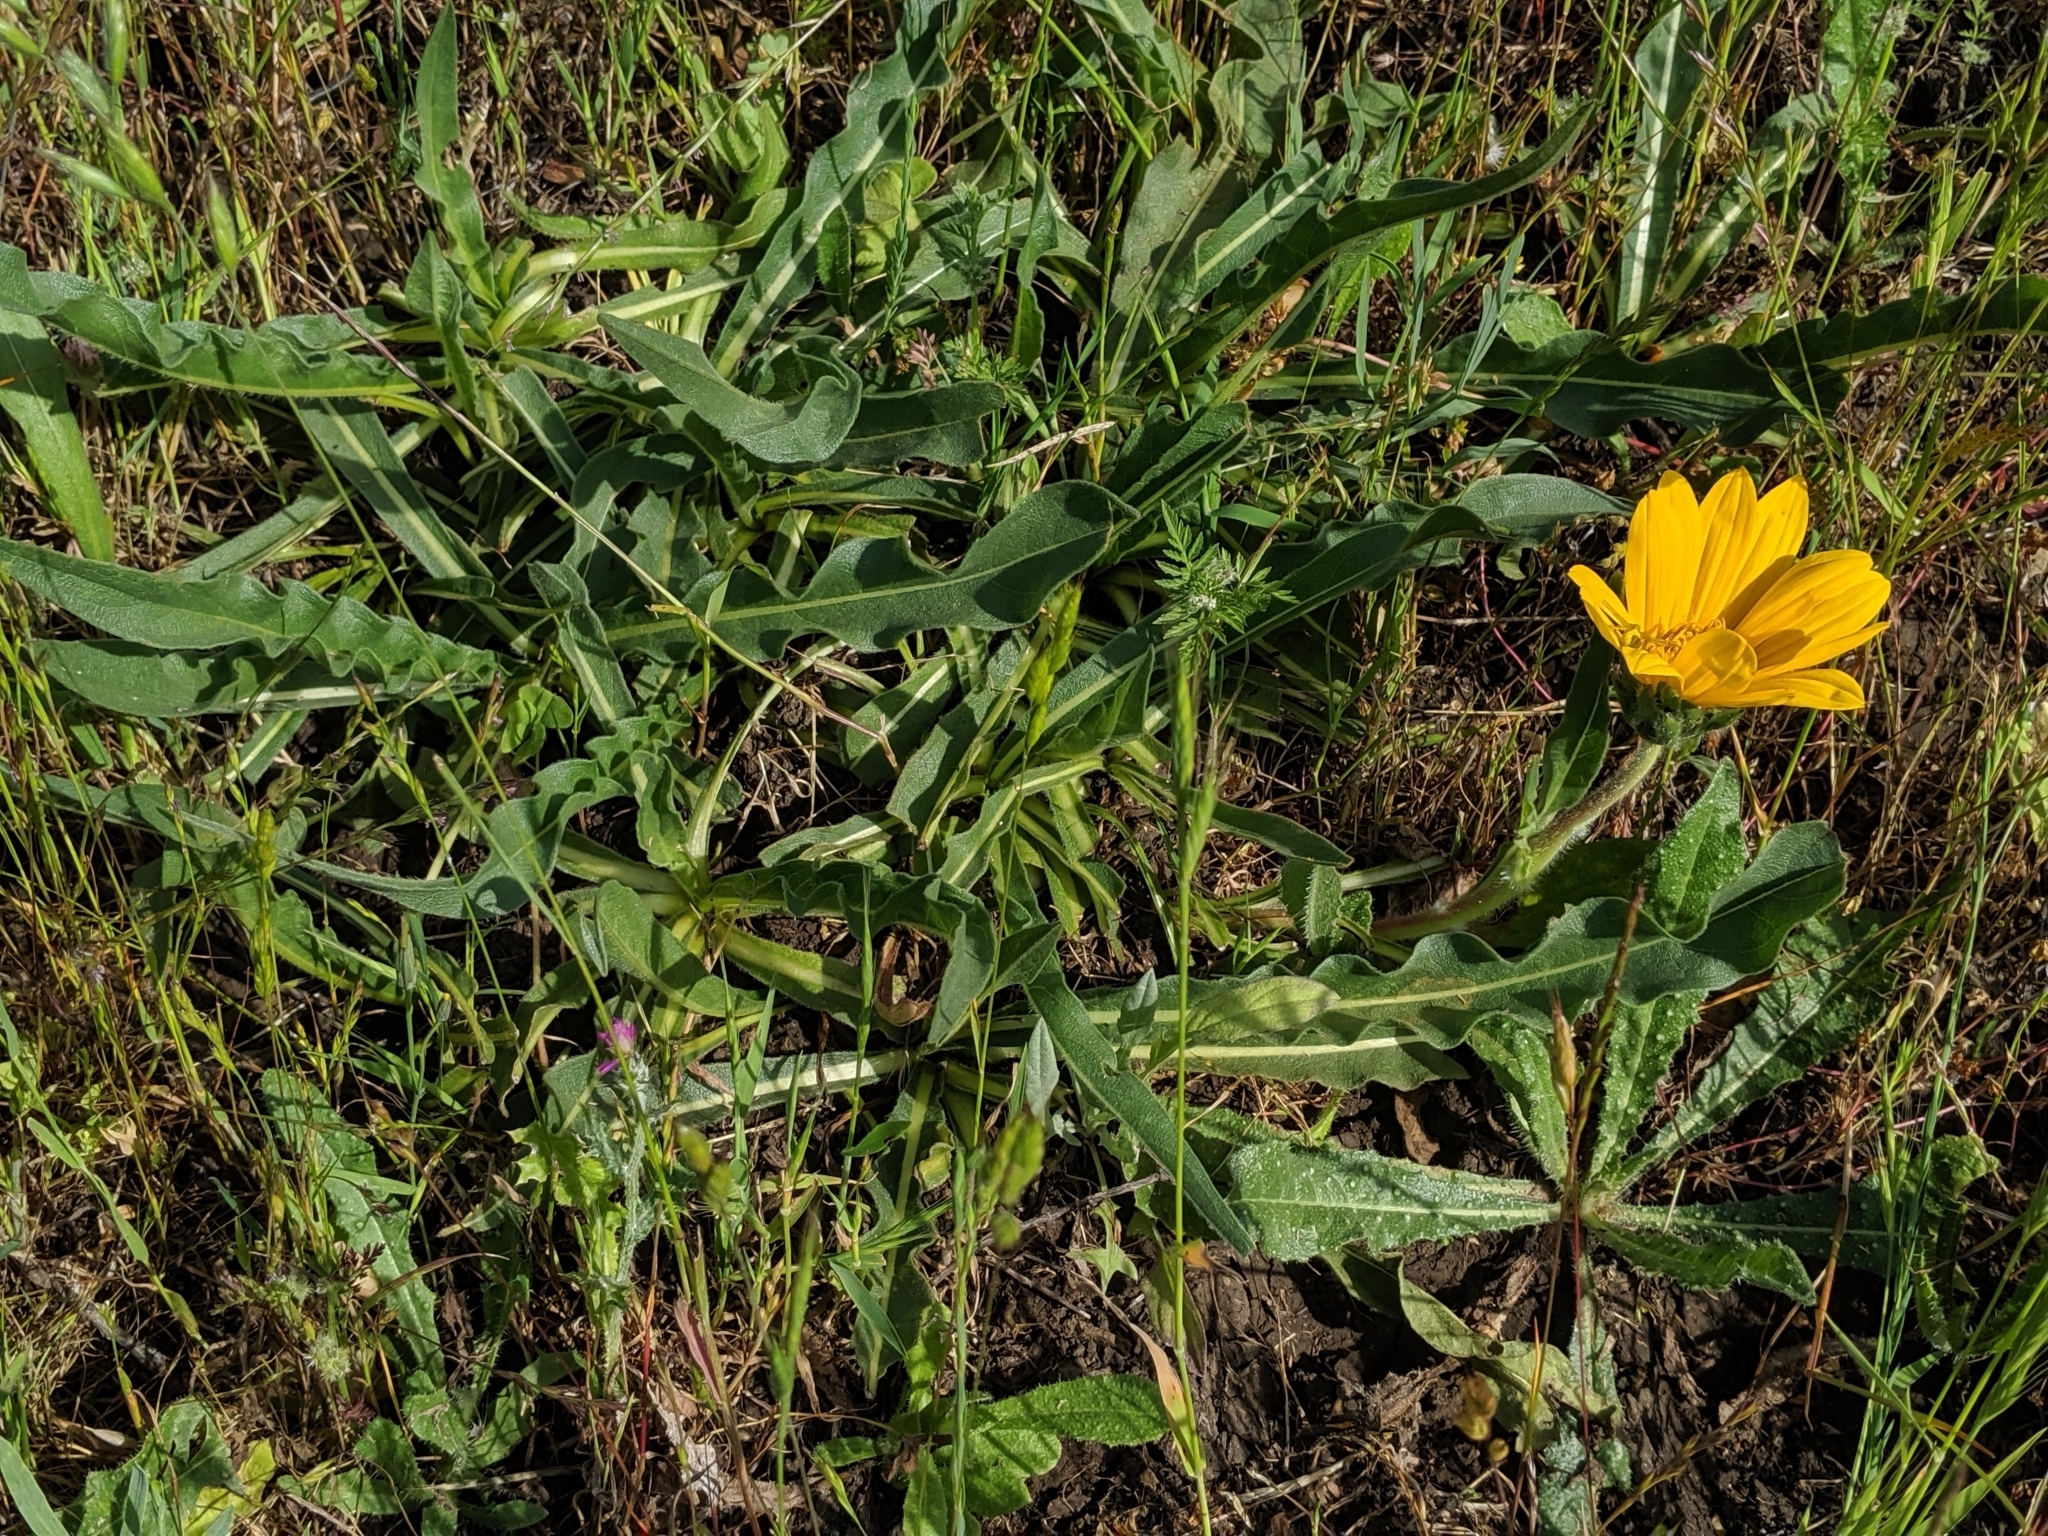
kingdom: Plantae
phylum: Tracheophyta
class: Magnoliopsida
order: Asterales
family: Asteraceae
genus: Wyethia
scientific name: Wyethia angustifolia
